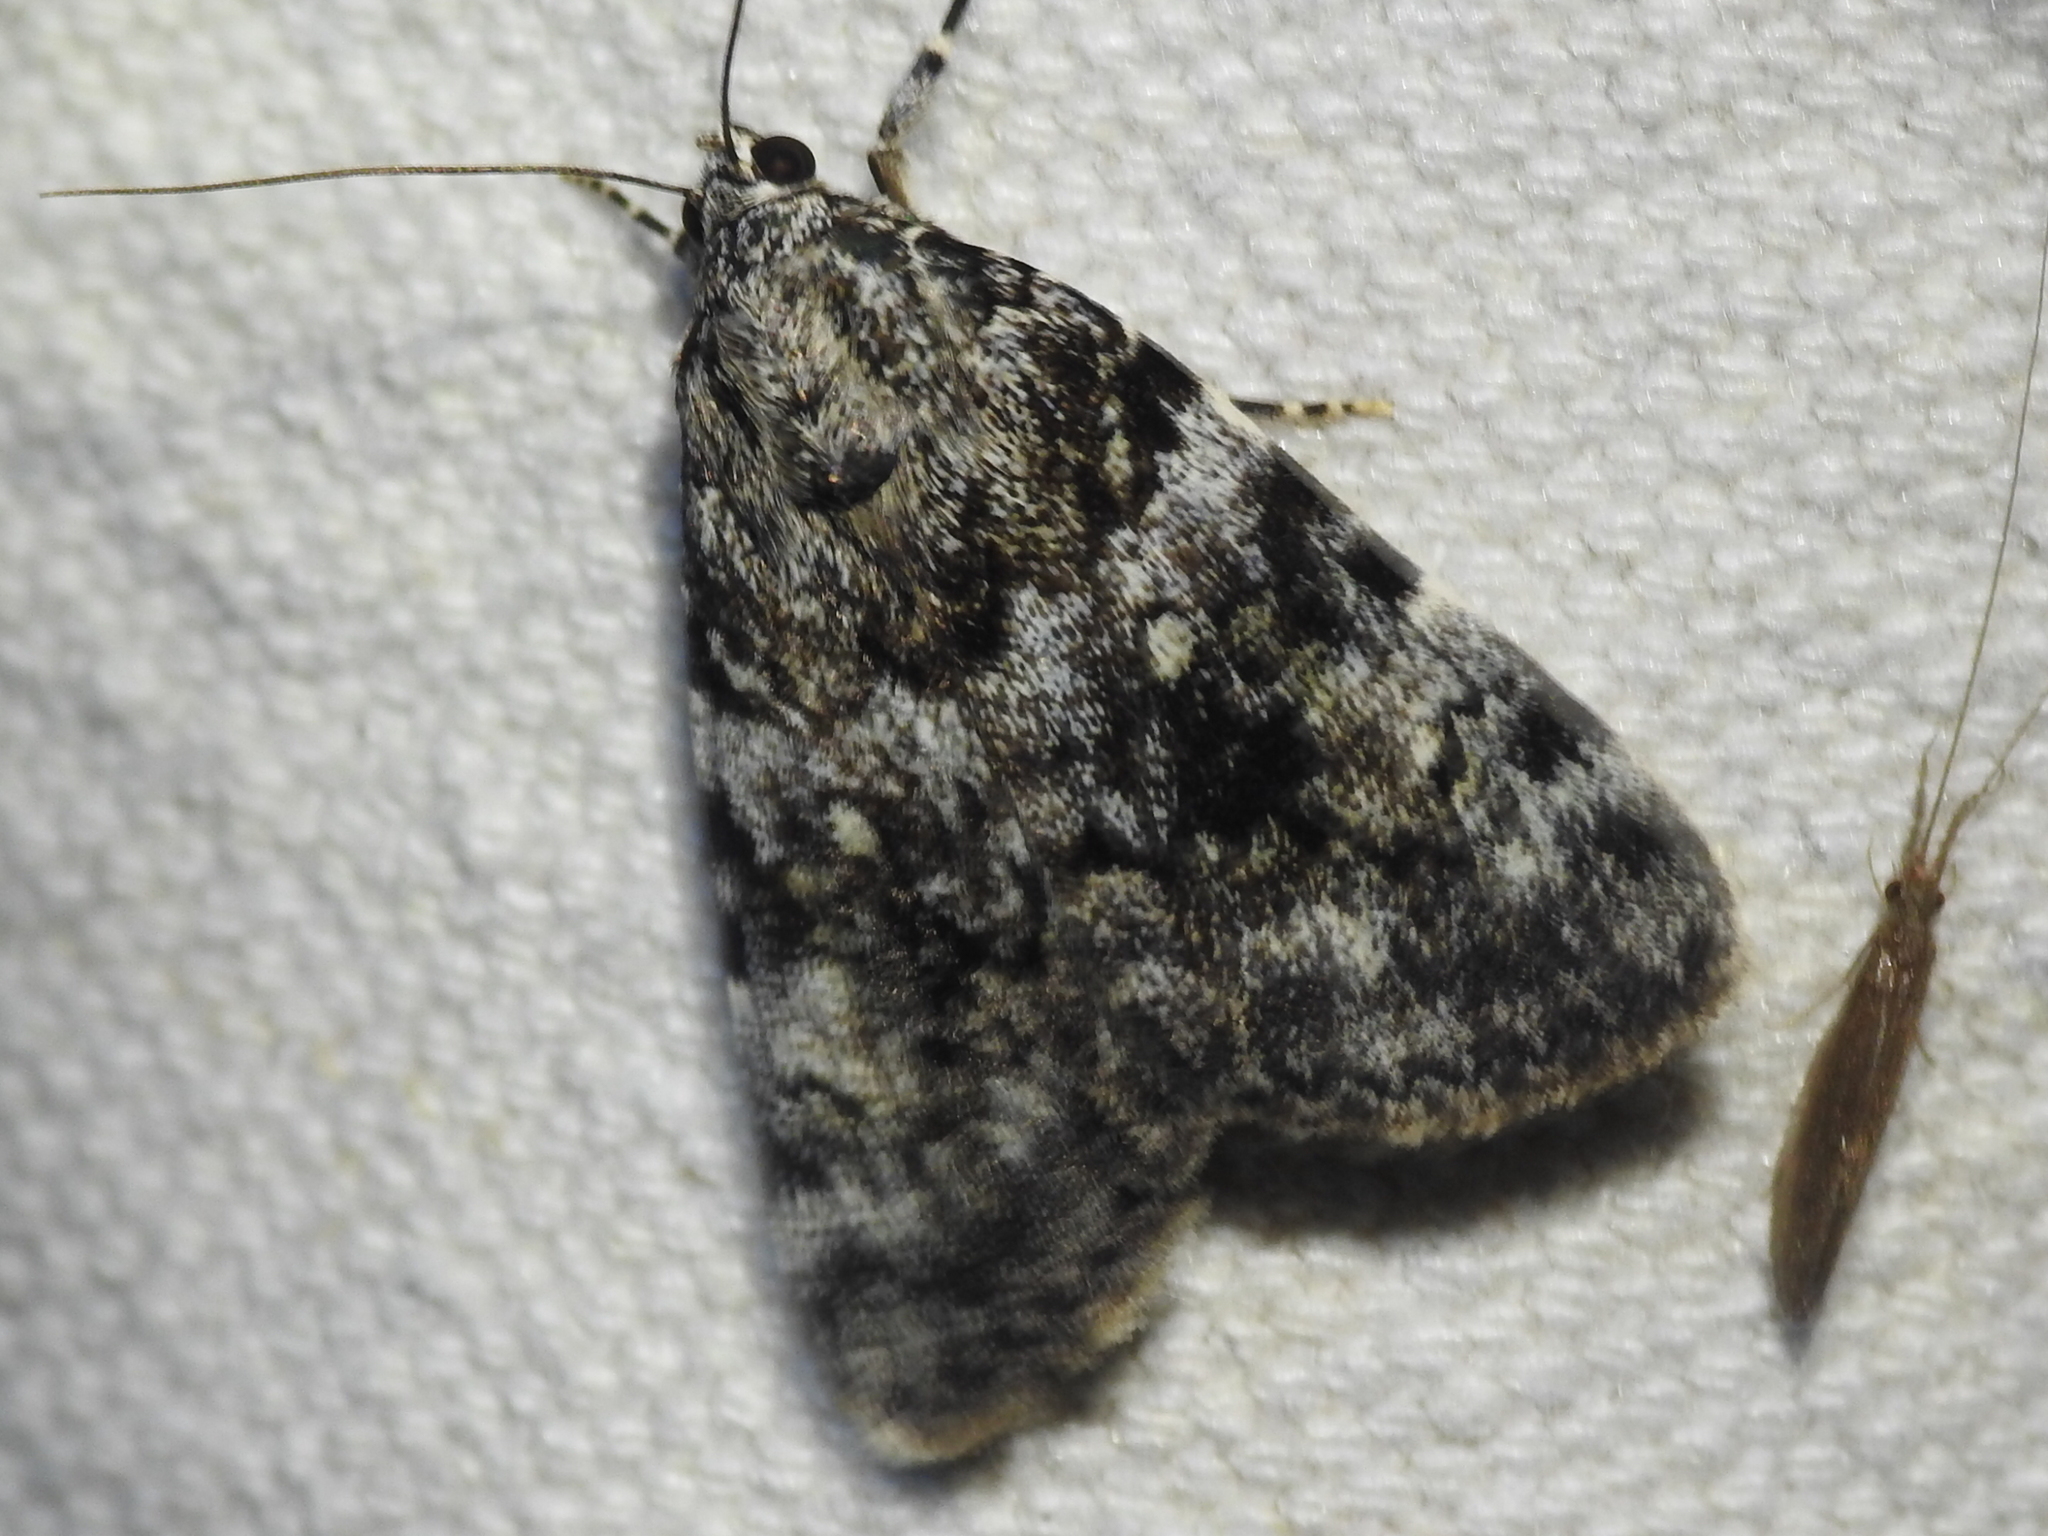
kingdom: Animalia
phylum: Arthropoda
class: Insecta
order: Lepidoptera
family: Erebidae
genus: Catocala
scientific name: Catocala lineella
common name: Little lined underwing
